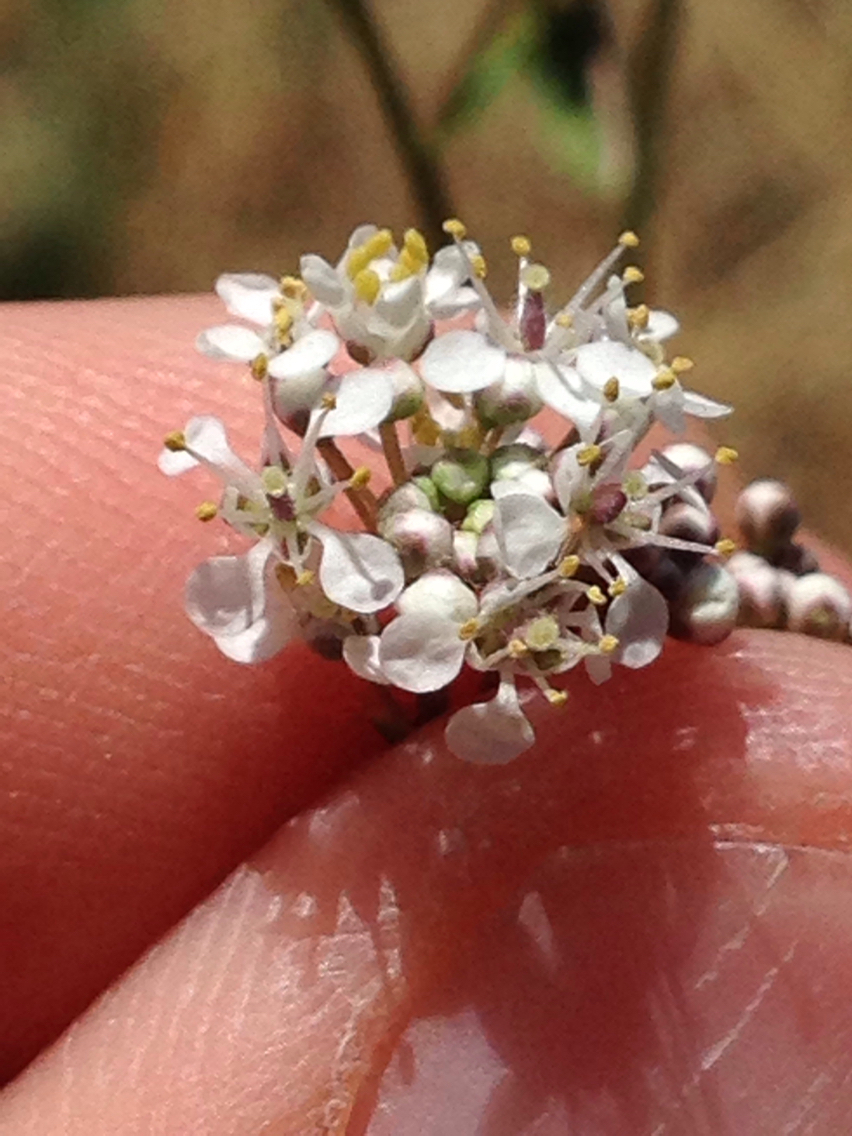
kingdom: Plantae
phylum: Tracheophyta
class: Magnoliopsida
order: Brassicales
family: Brassicaceae
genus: Lepidium
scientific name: Lepidium latifolium
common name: Dittander
